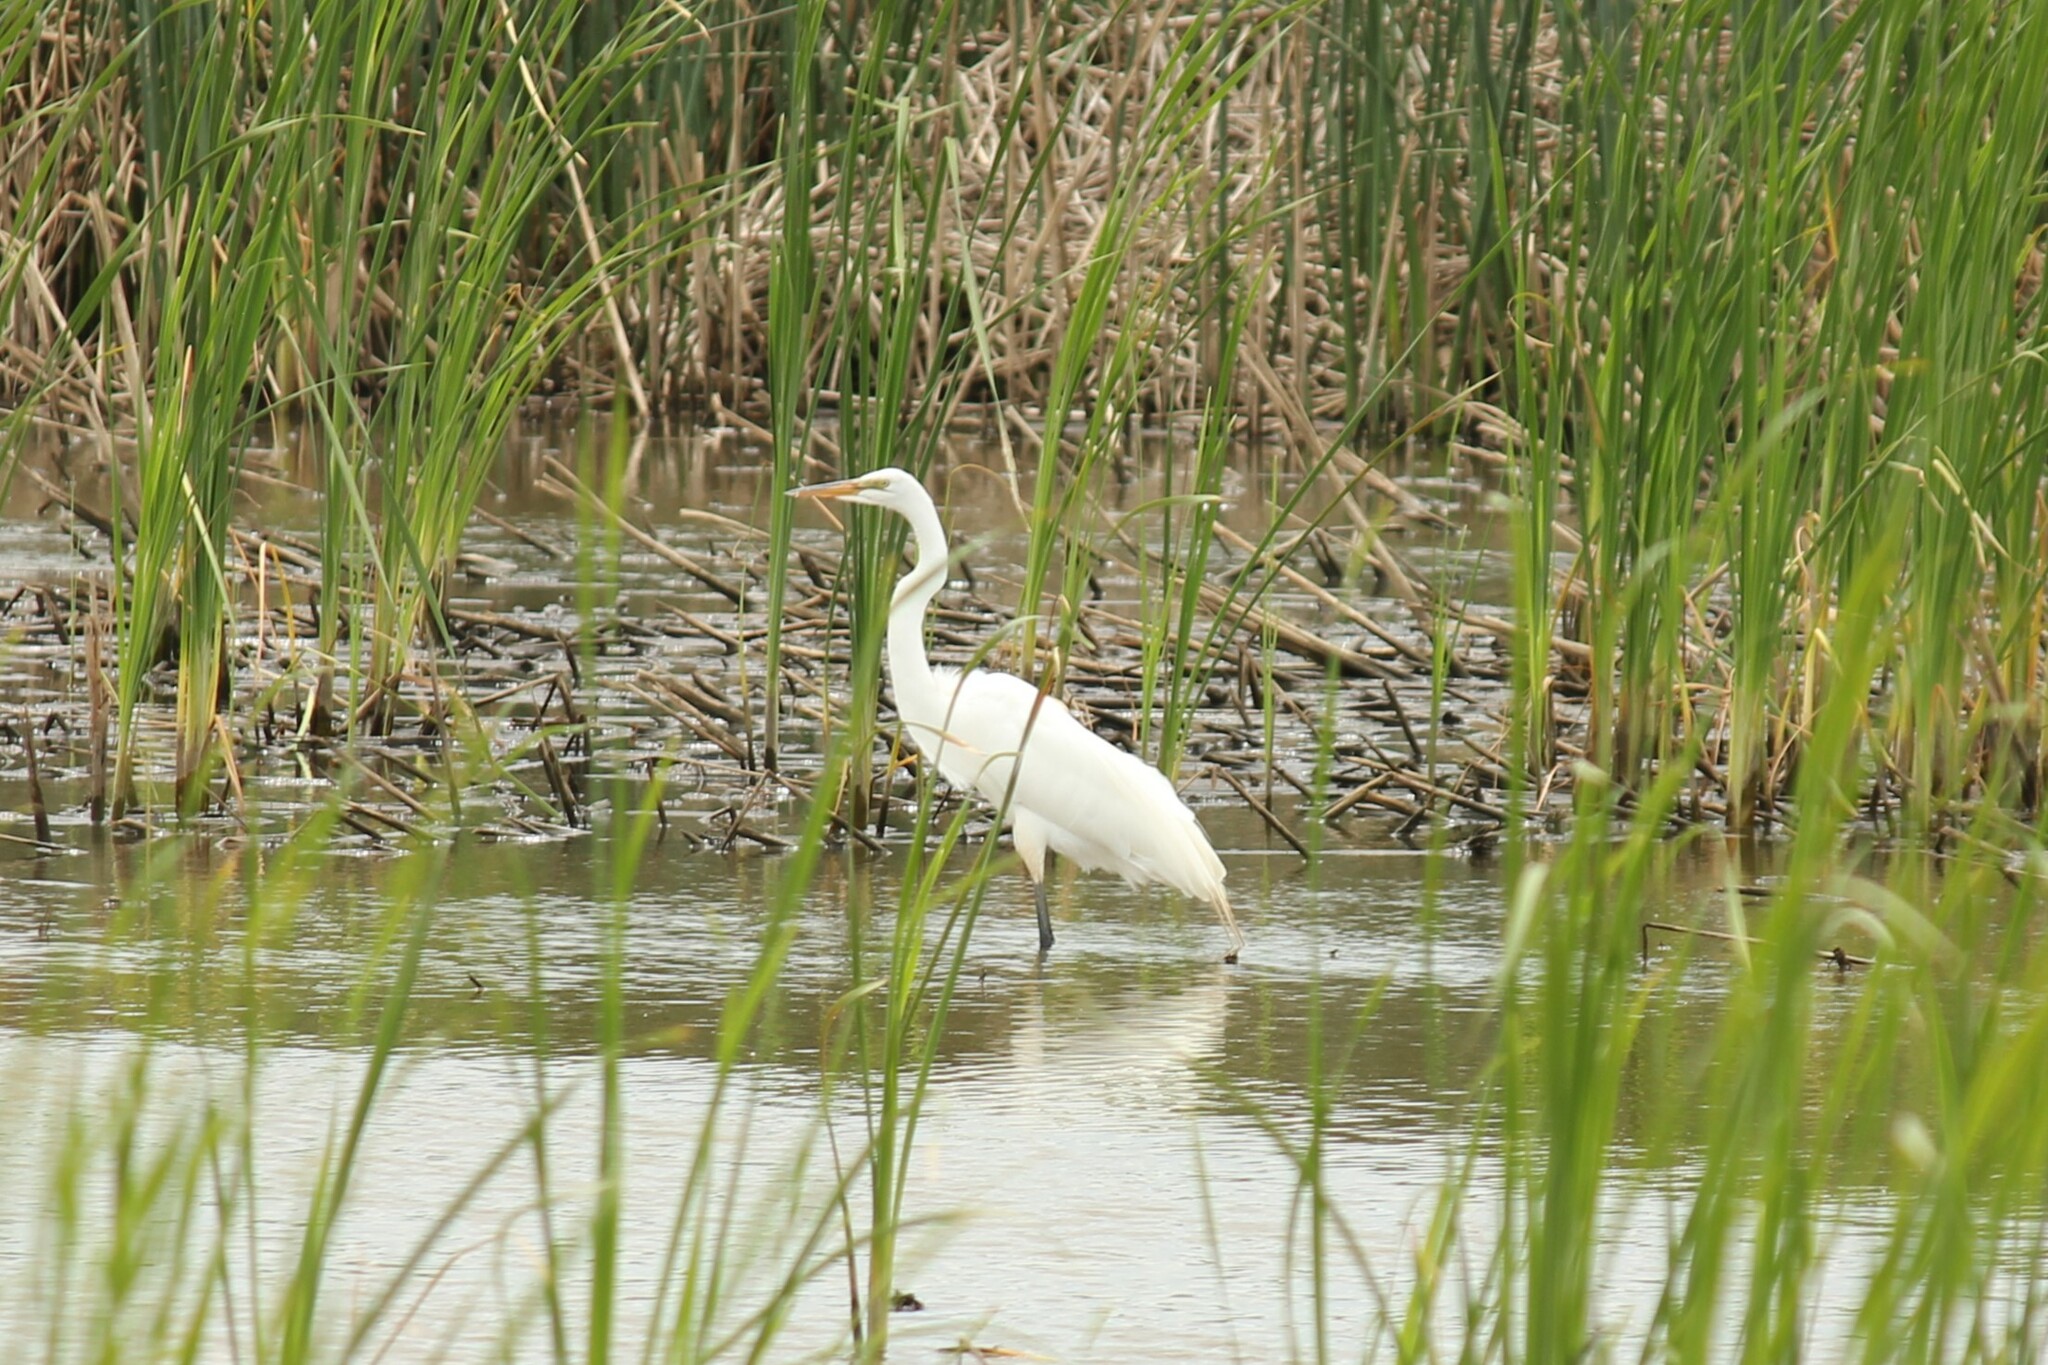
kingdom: Animalia
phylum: Chordata
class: Aves
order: Pelecaniformes
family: Ardeidae
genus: Ardea
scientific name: Ardea alba
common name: Great egret
